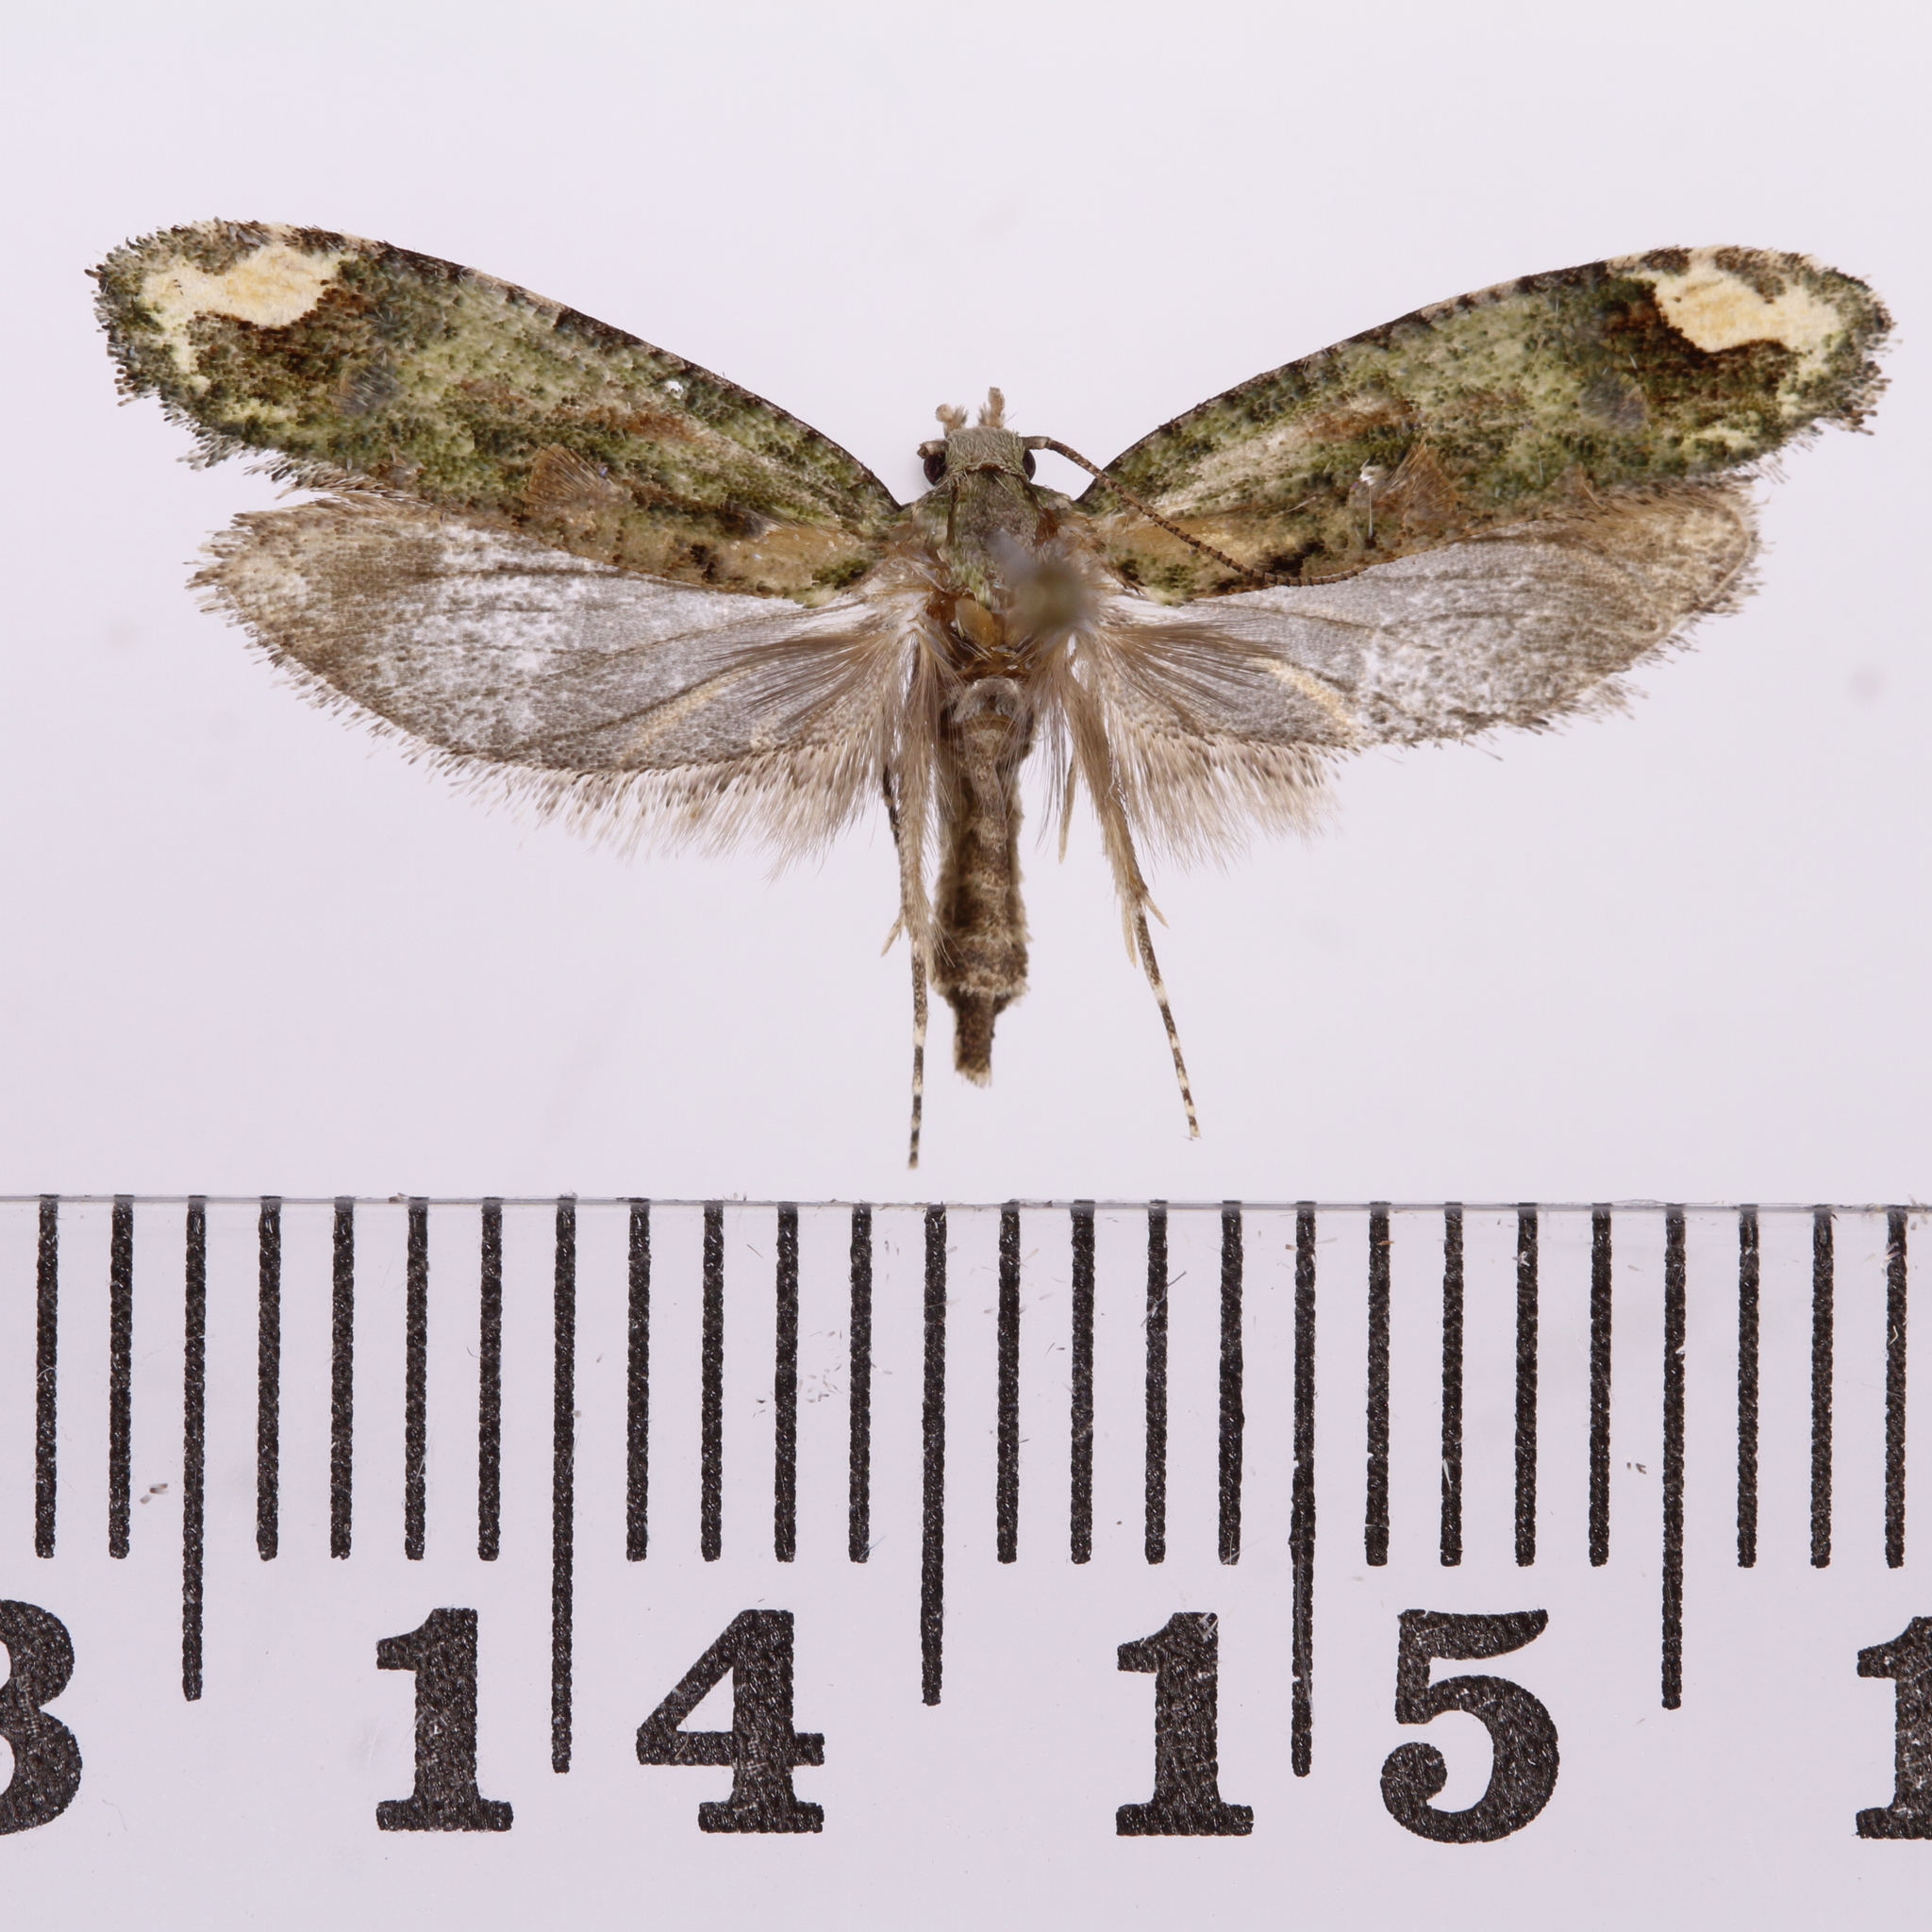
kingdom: Animalia
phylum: Arthropoda
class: Insecta
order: Lepidoptera
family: Tineidae
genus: Lysiphragma
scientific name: Lysiphragma mixochlora
